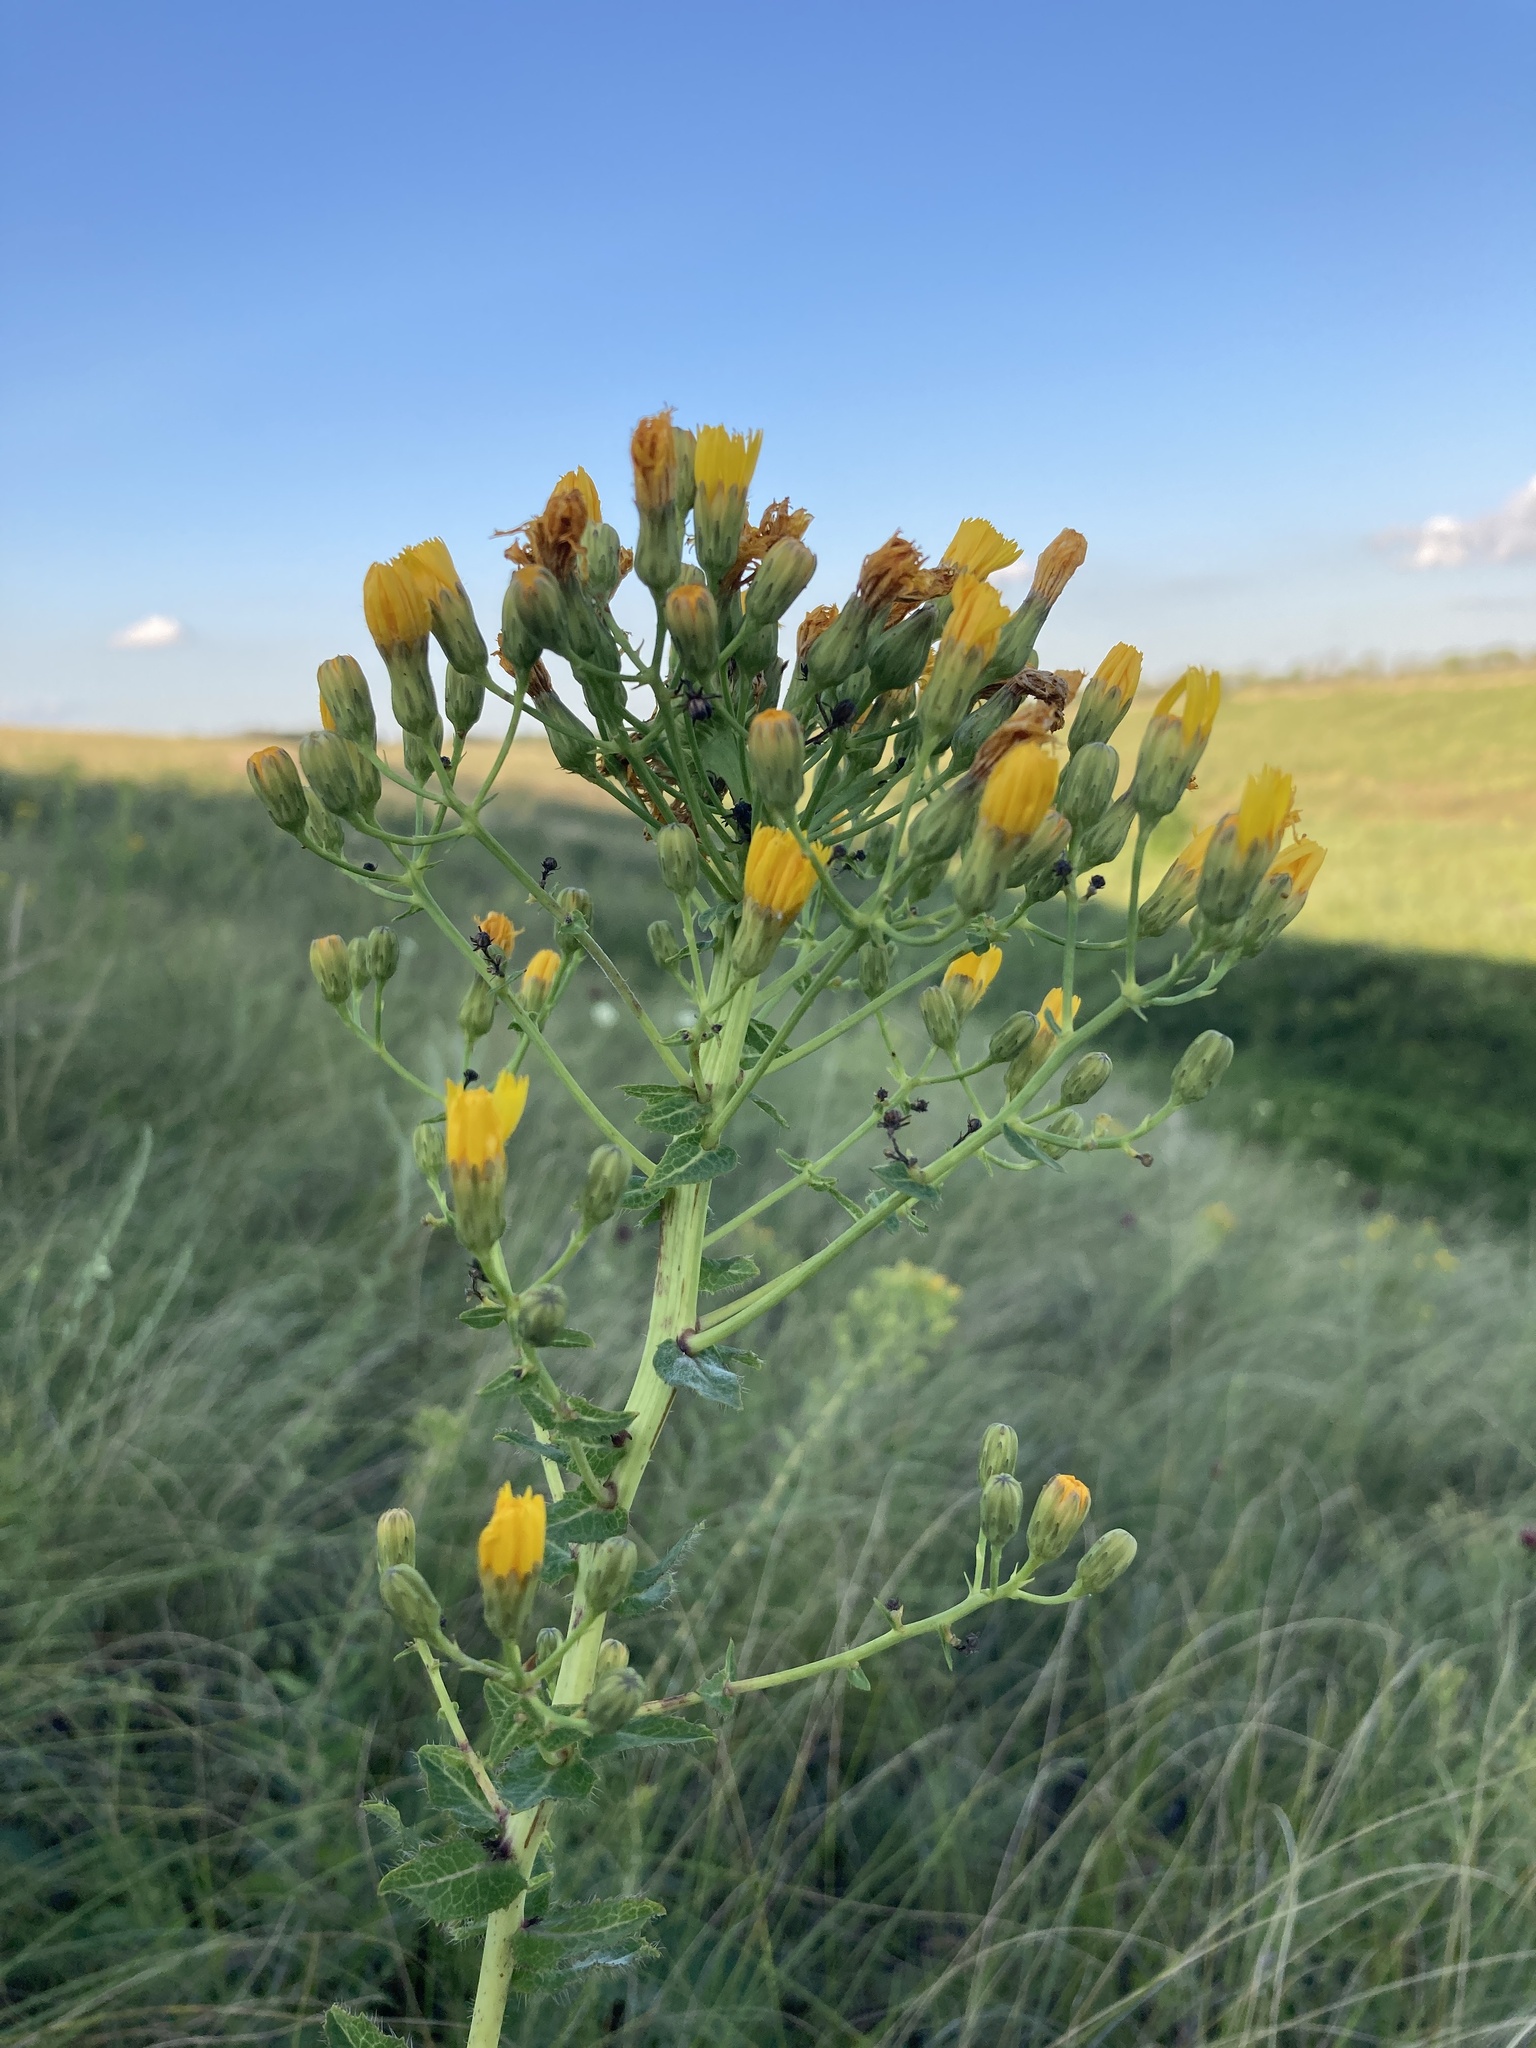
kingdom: Plantae
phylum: Tracheophyta
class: Magnoliopsida
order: Asterales
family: Asteraceae
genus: Hieracium
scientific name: Hieracium virosum
